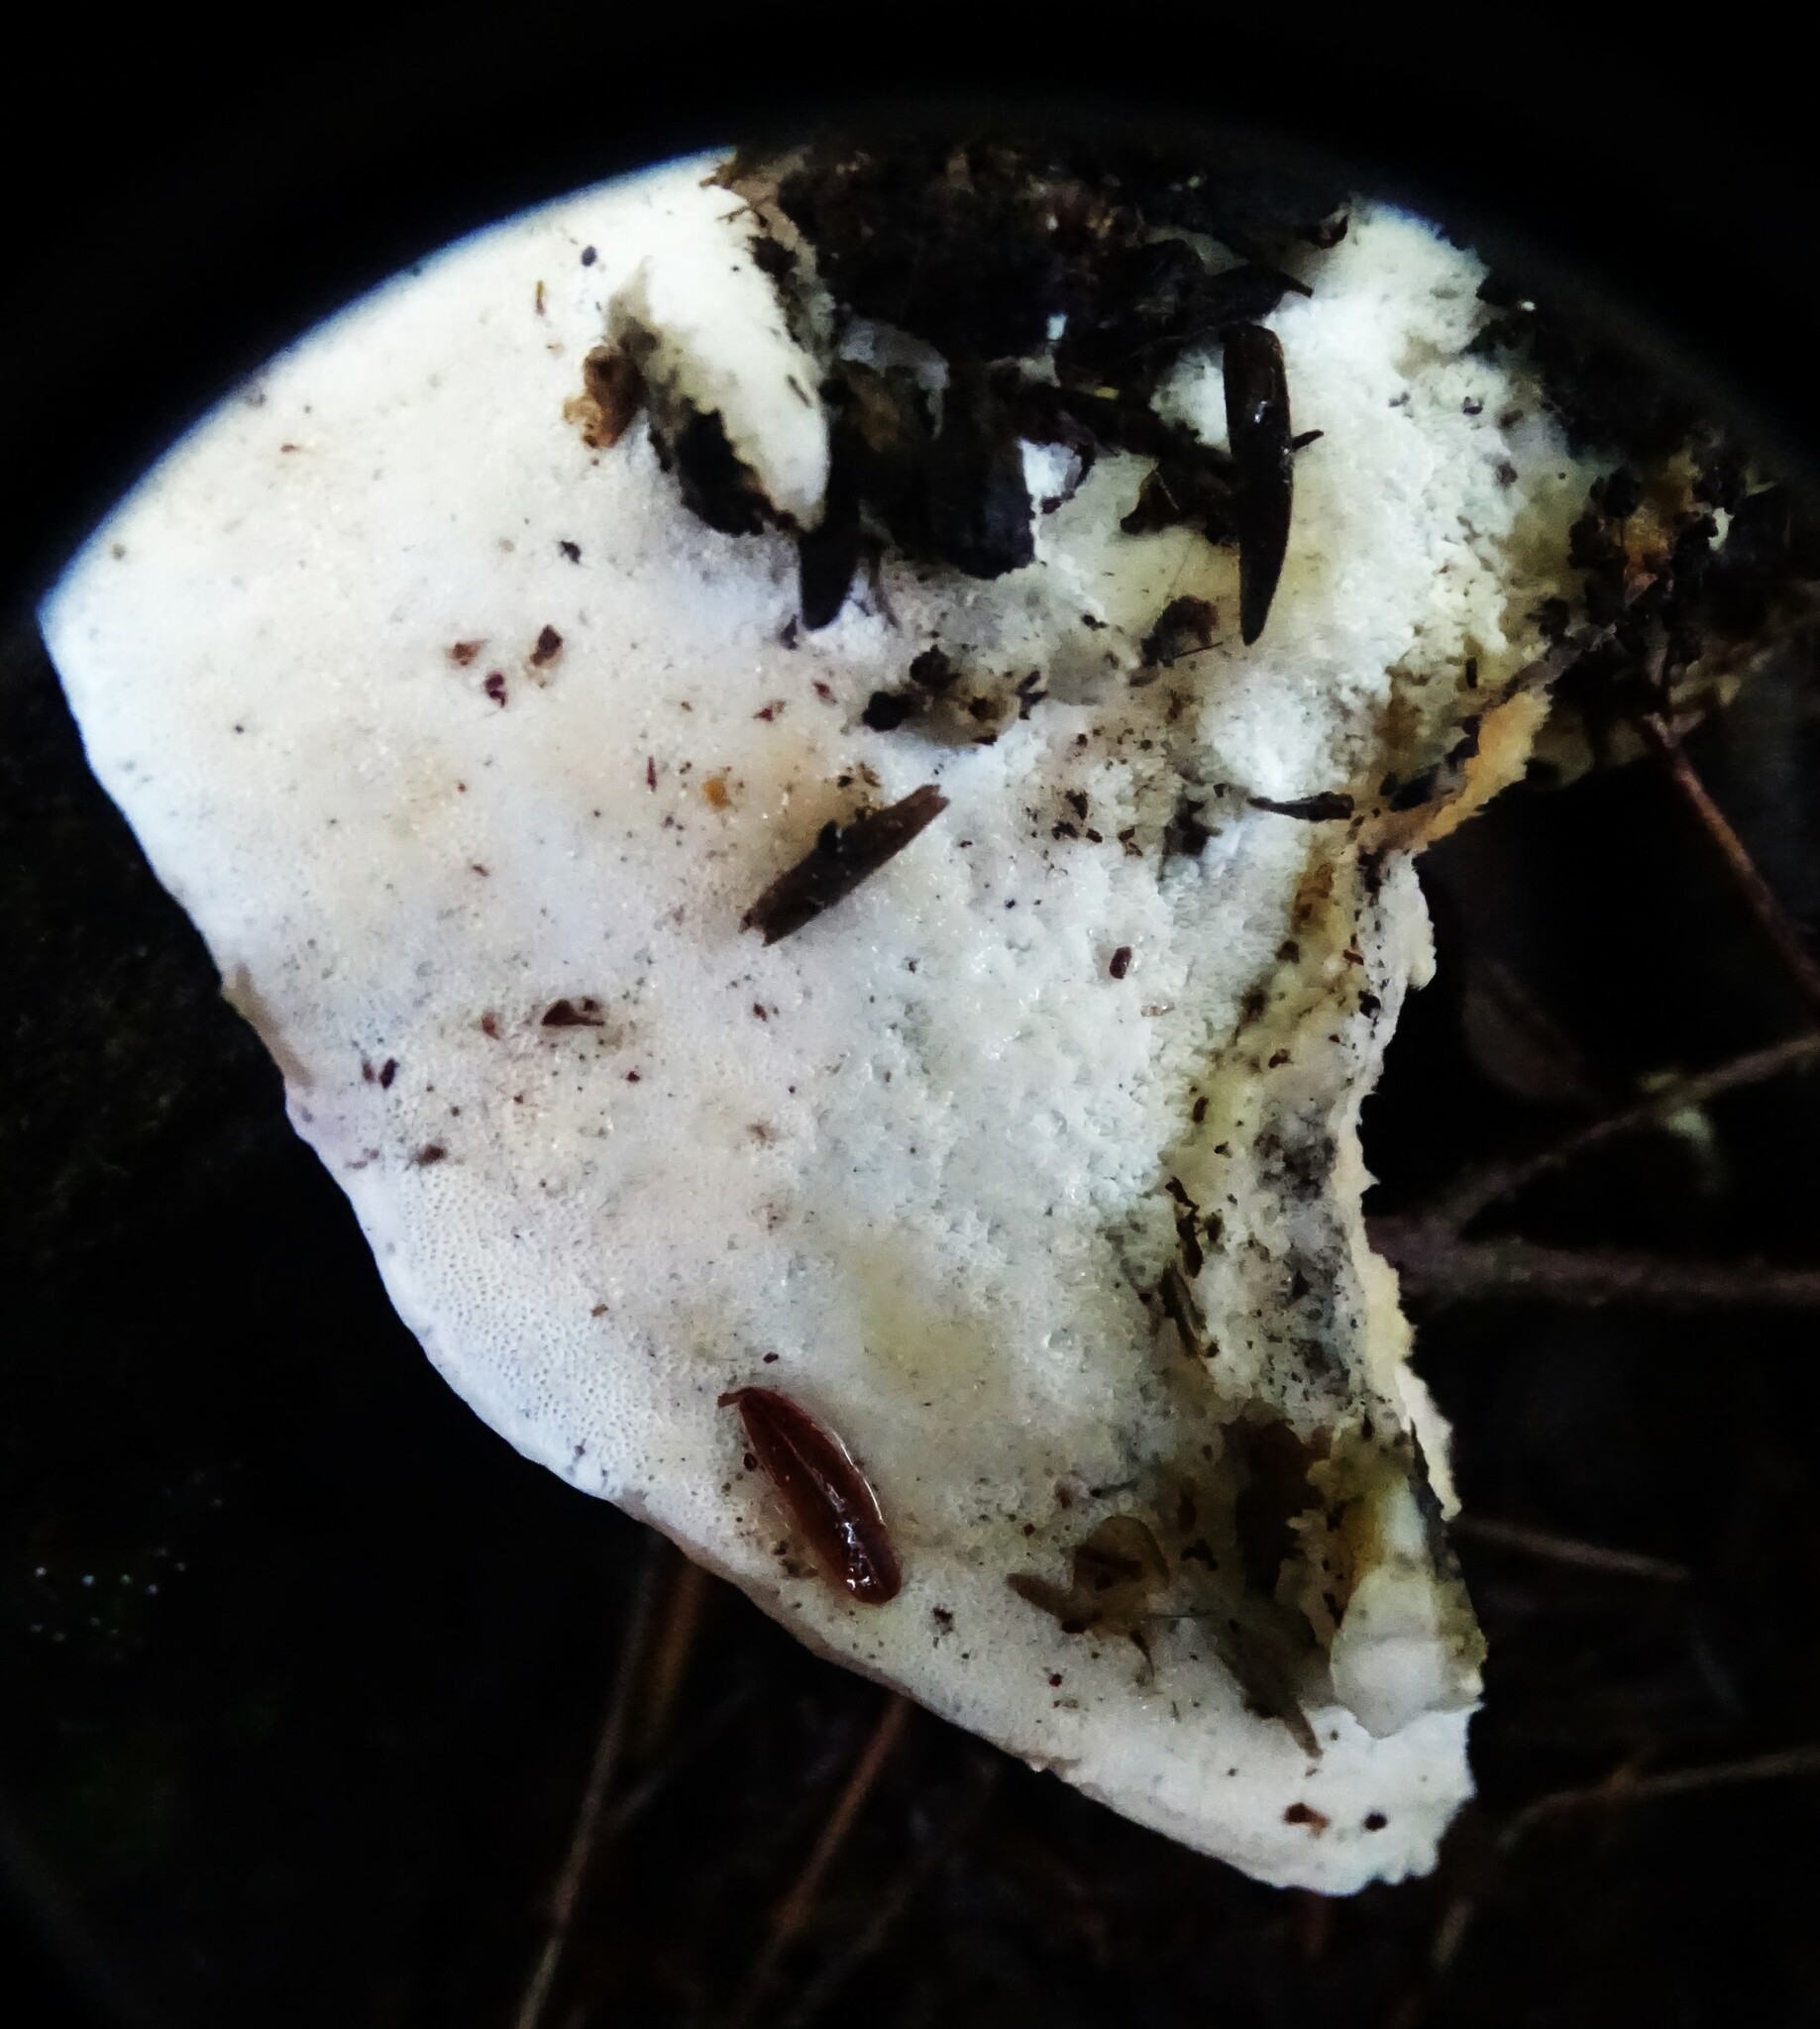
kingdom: Fungi
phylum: Basidiomycota
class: Agaricomycetes
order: Hymenochaetales
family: Oxyporaceae
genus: Oxyporus
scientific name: Oxyporus populinus
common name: Poplar bracket
